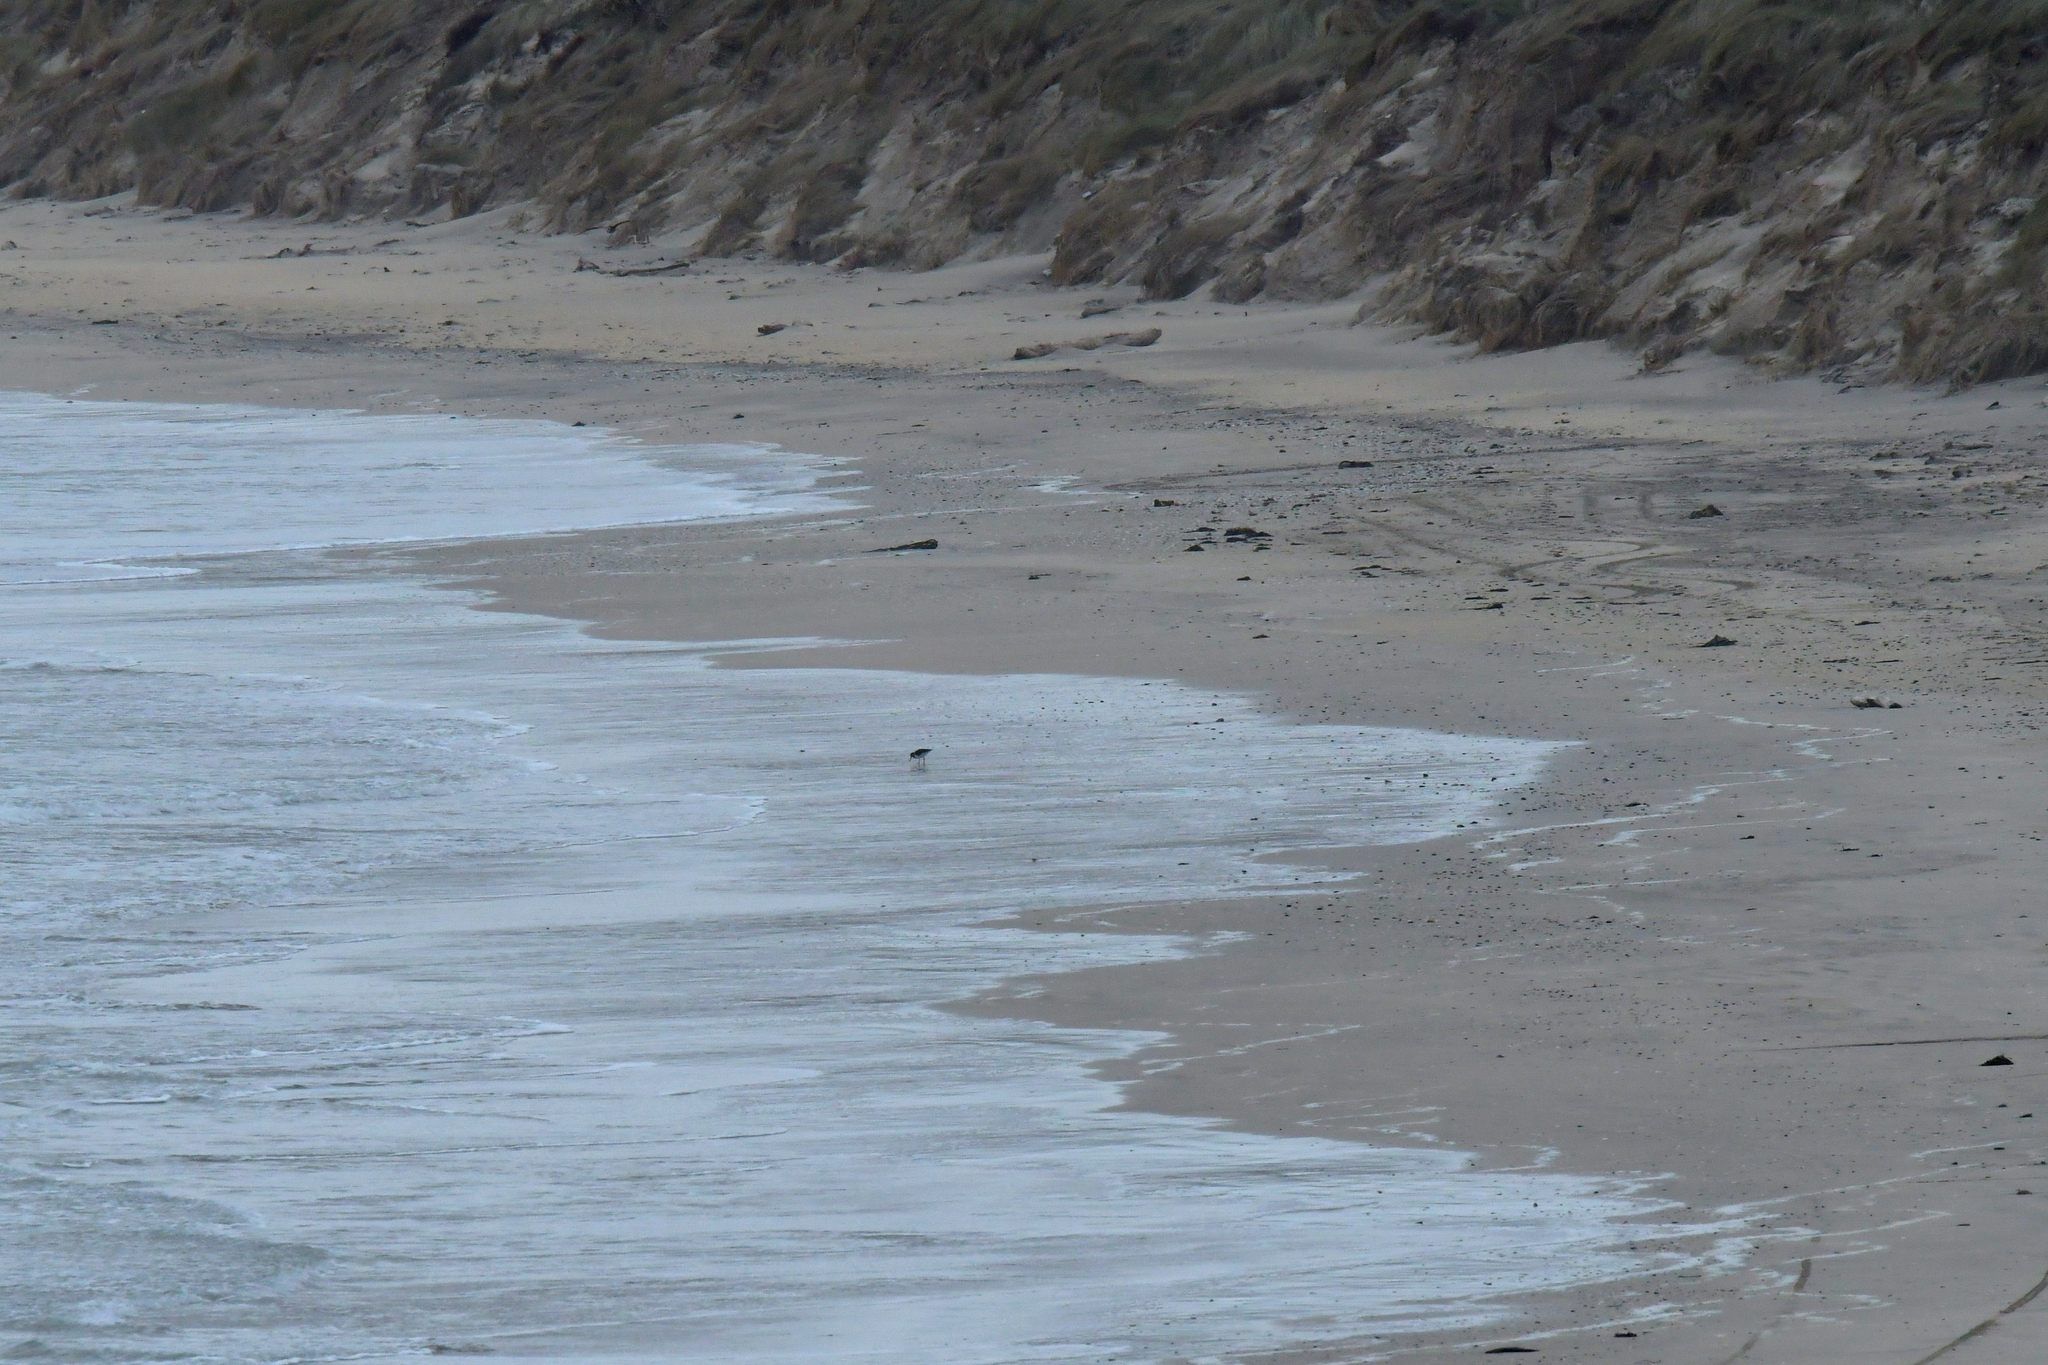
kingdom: Animalia
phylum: Chordata
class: Aves
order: Charadriiformes
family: Haematopodidae
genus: Haematopus
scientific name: Haematopus chathamensis
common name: Chatham oystercatcher
